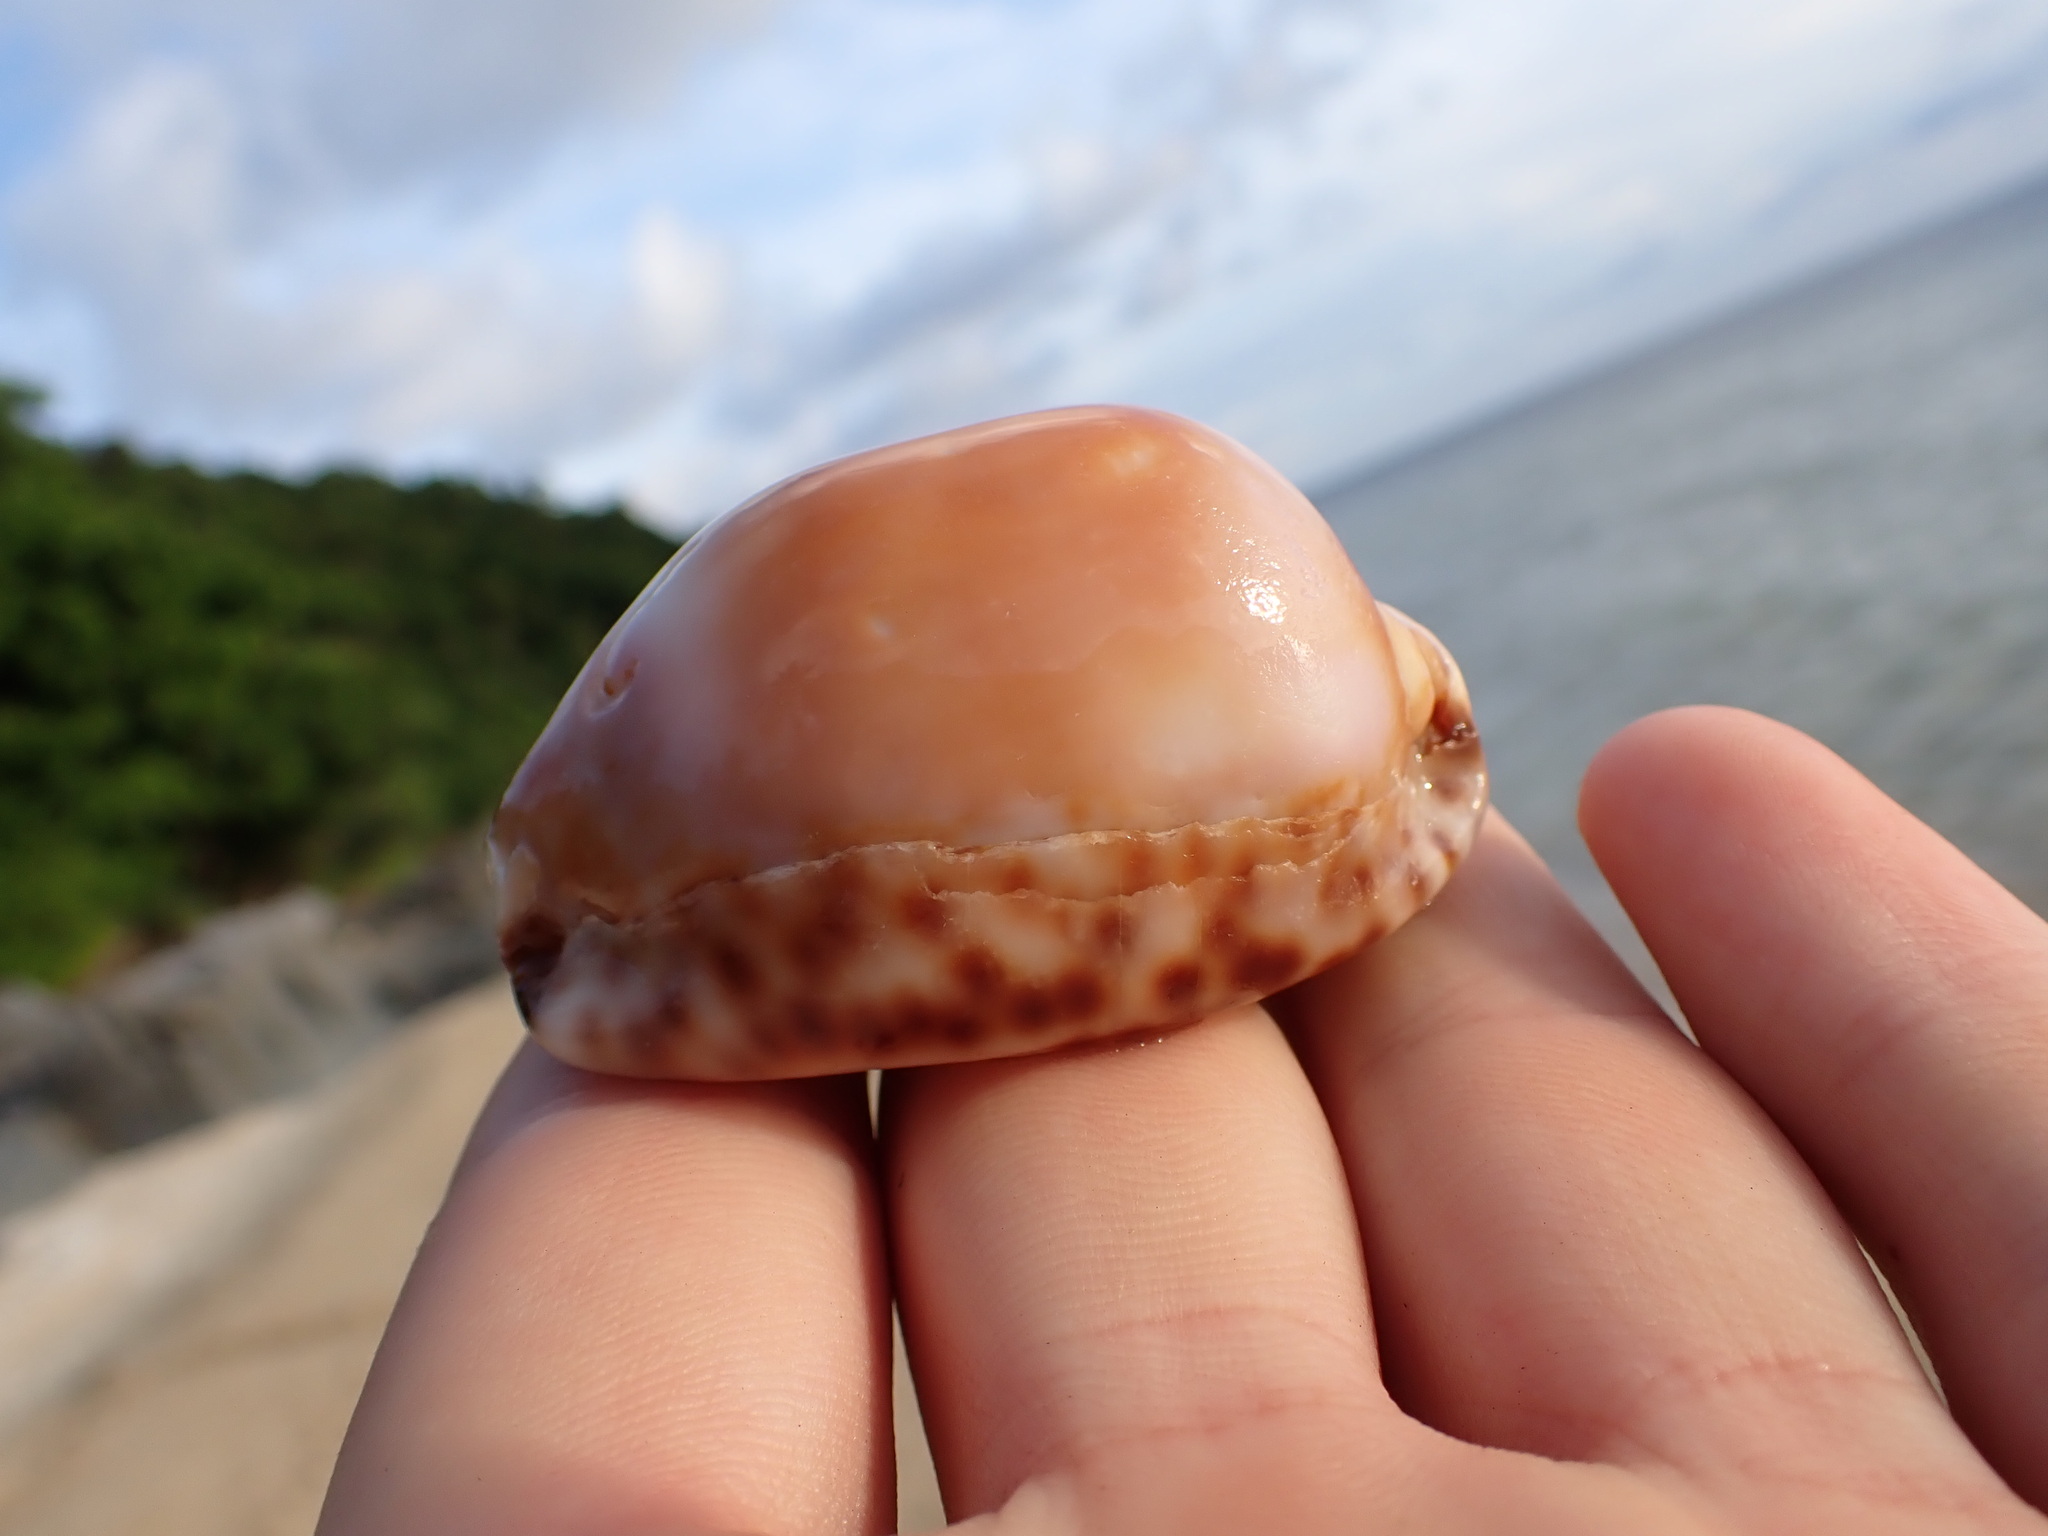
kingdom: Animalia
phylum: Mollusca
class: Gastropoda
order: Littorinimorpha
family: Cypraeidae
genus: Mauritia
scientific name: Mauritia arabica
